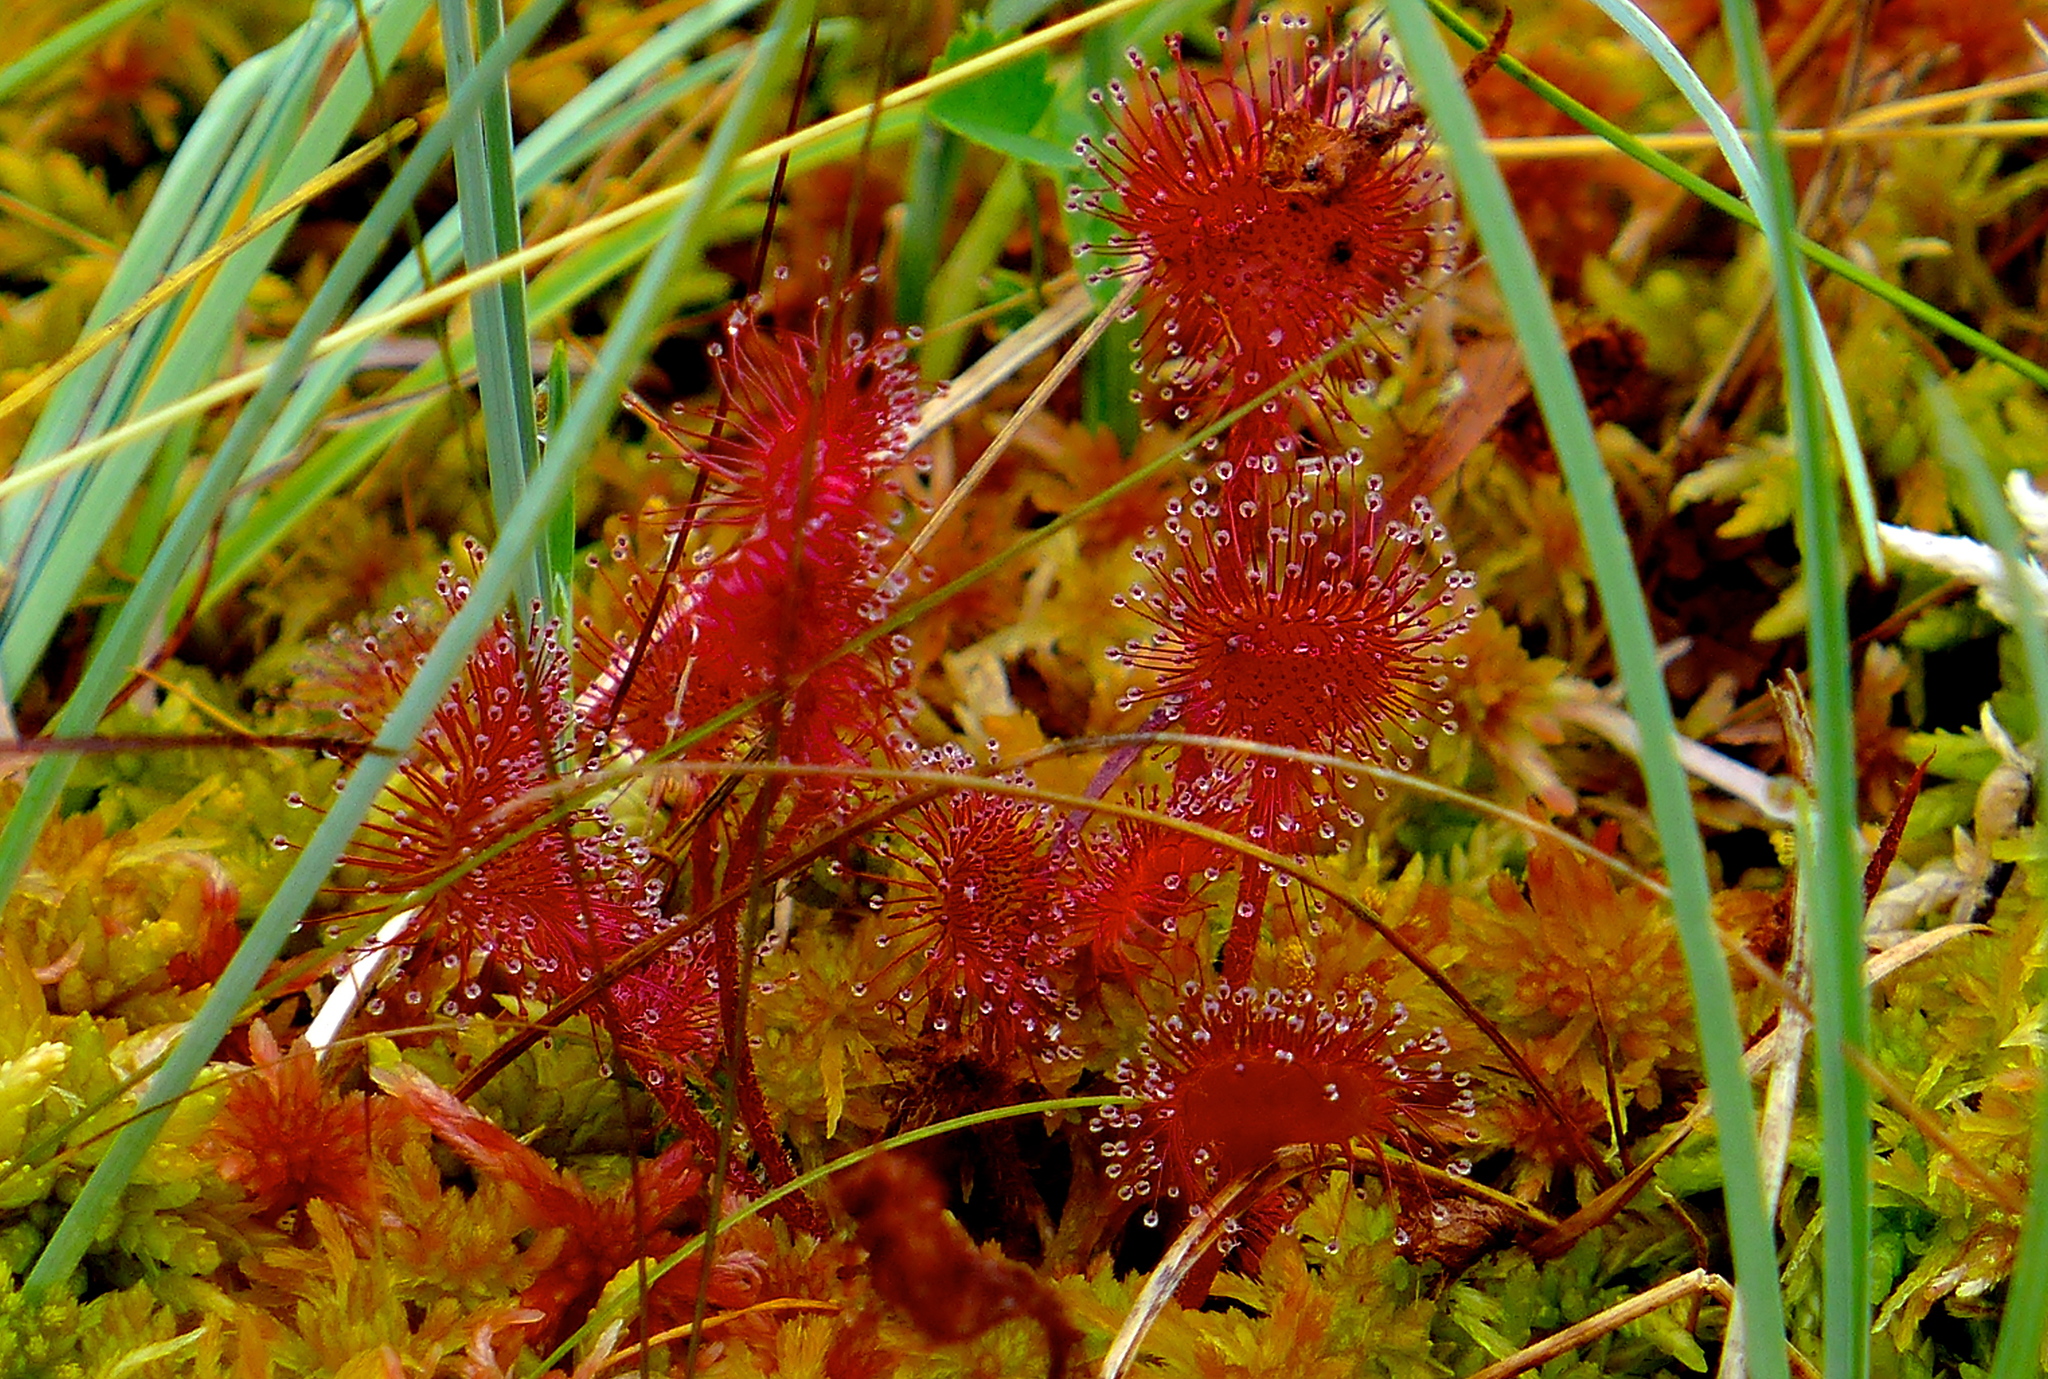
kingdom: Plantae
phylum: Tracheophyta
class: Magnoliopsida
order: Caryophyllales
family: Droseraceae
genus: Drosera
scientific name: Drosera rotundifolia
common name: Round-leaved sundew
